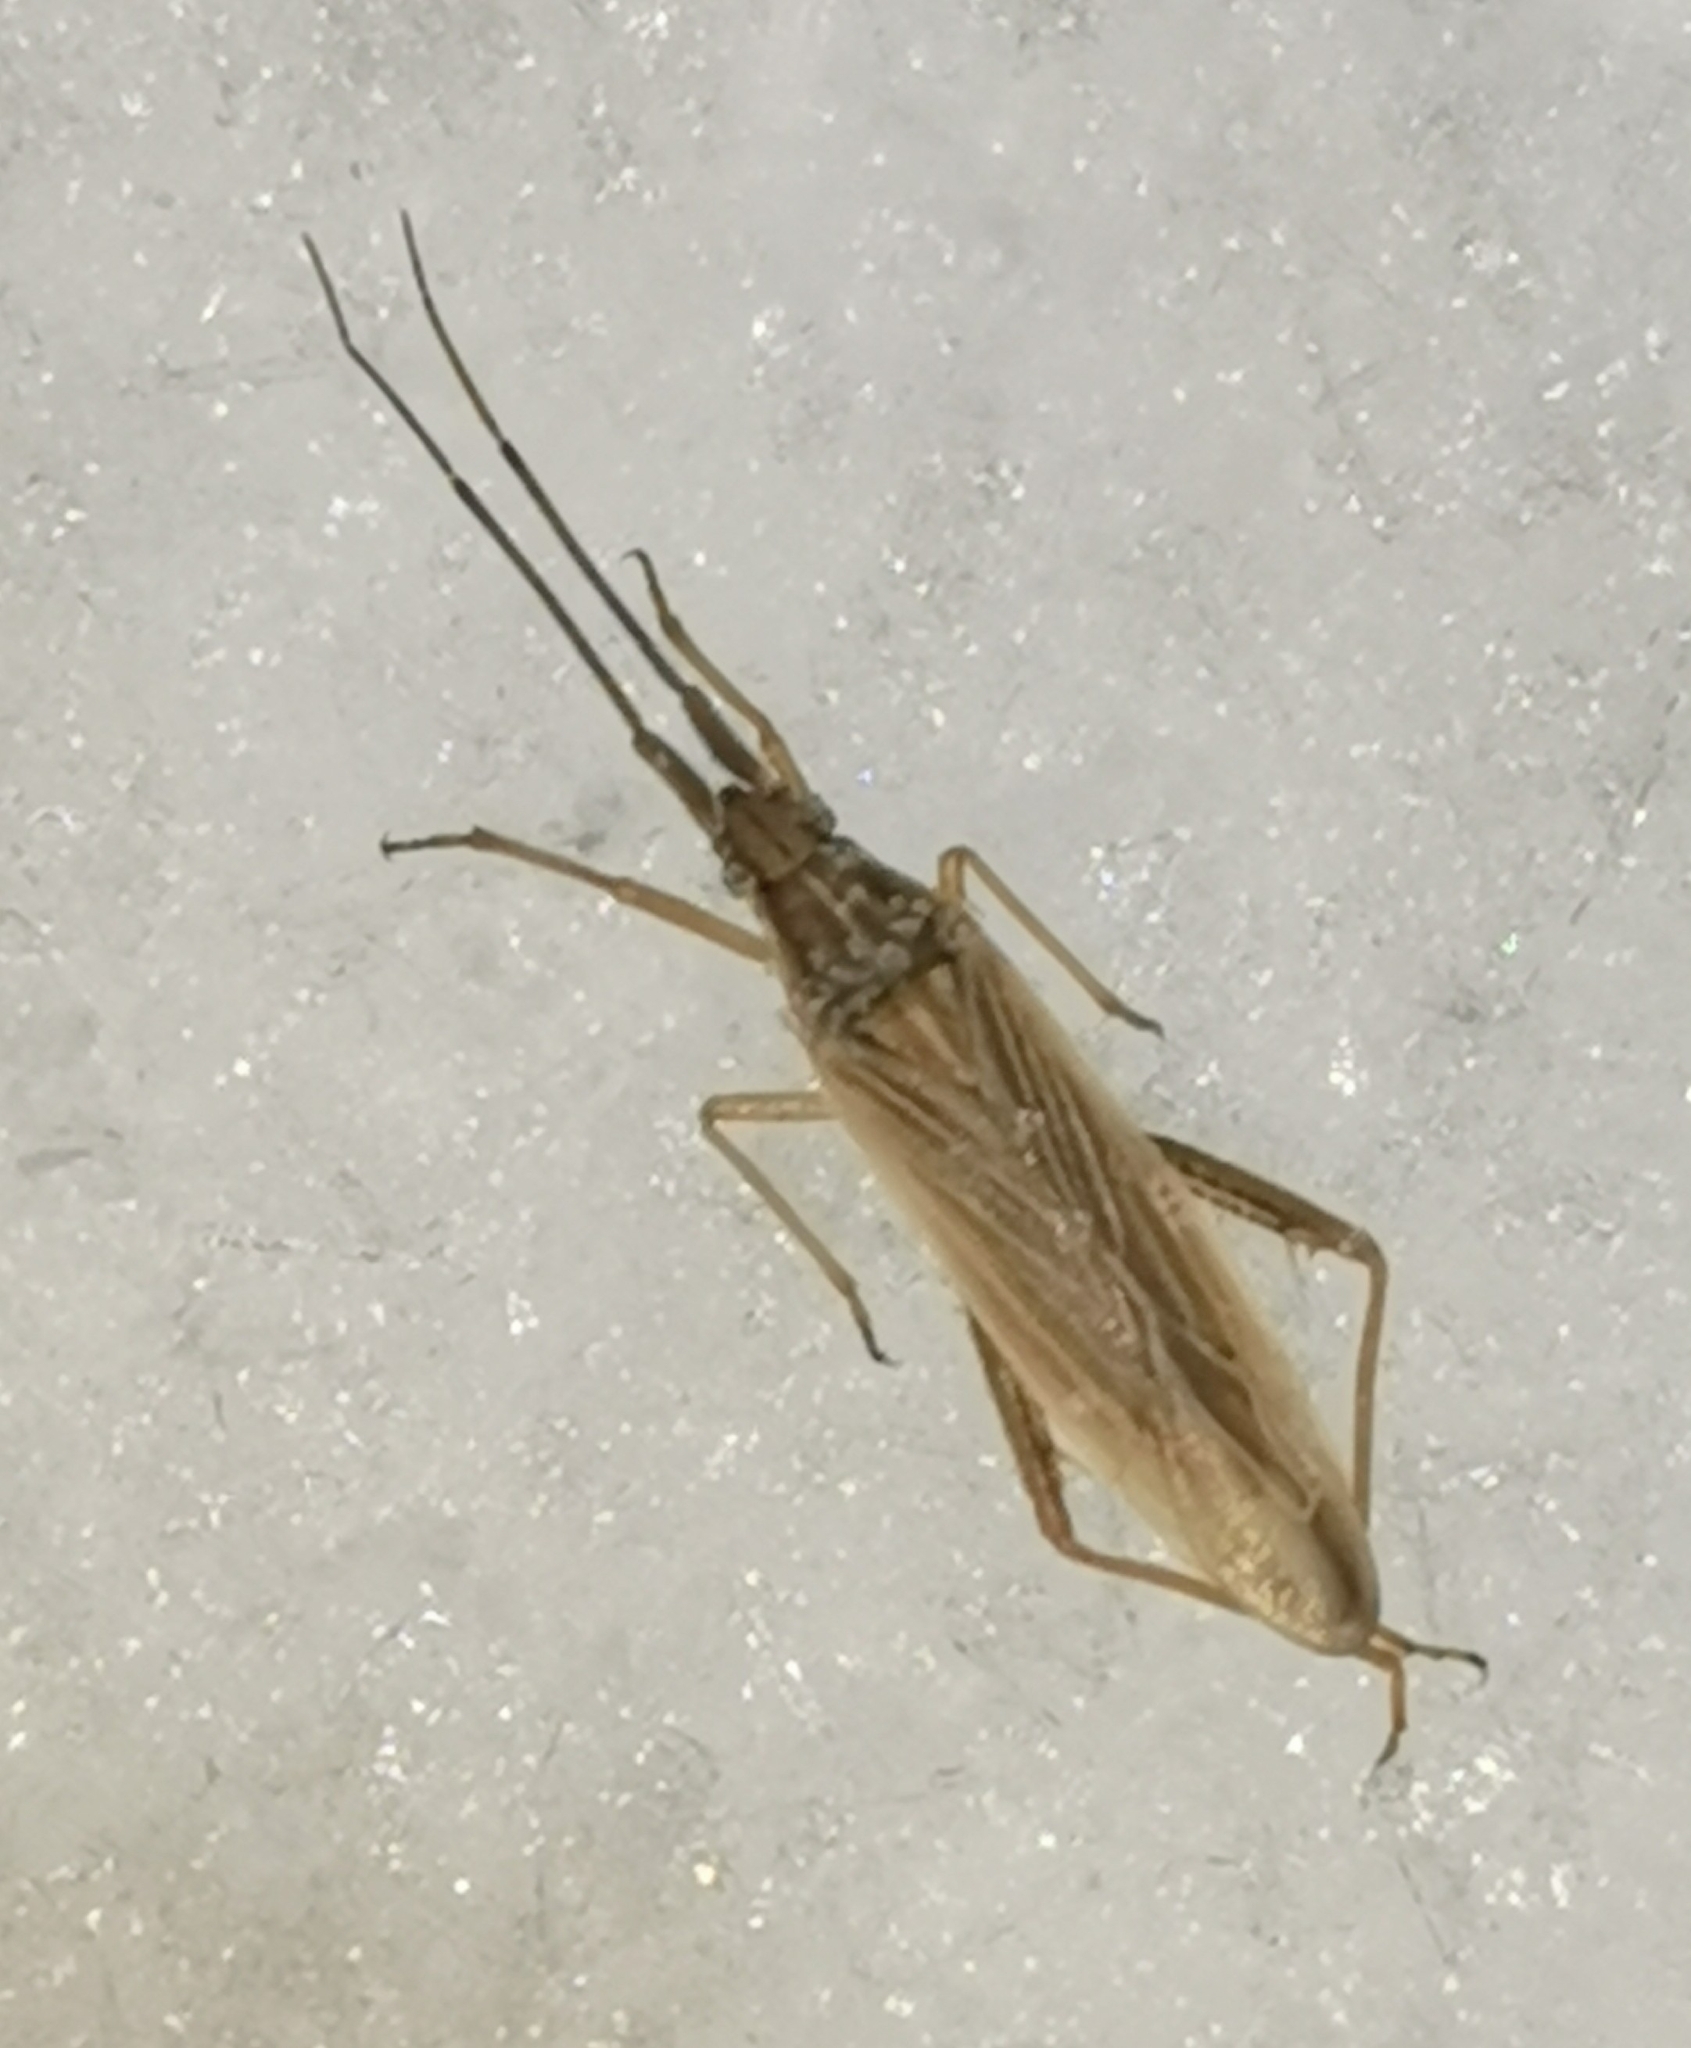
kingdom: Animalia
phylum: Arthropoda
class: Insecta
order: Hemiptera
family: Miridae
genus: Stenodema
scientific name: Stenodema calcarata
